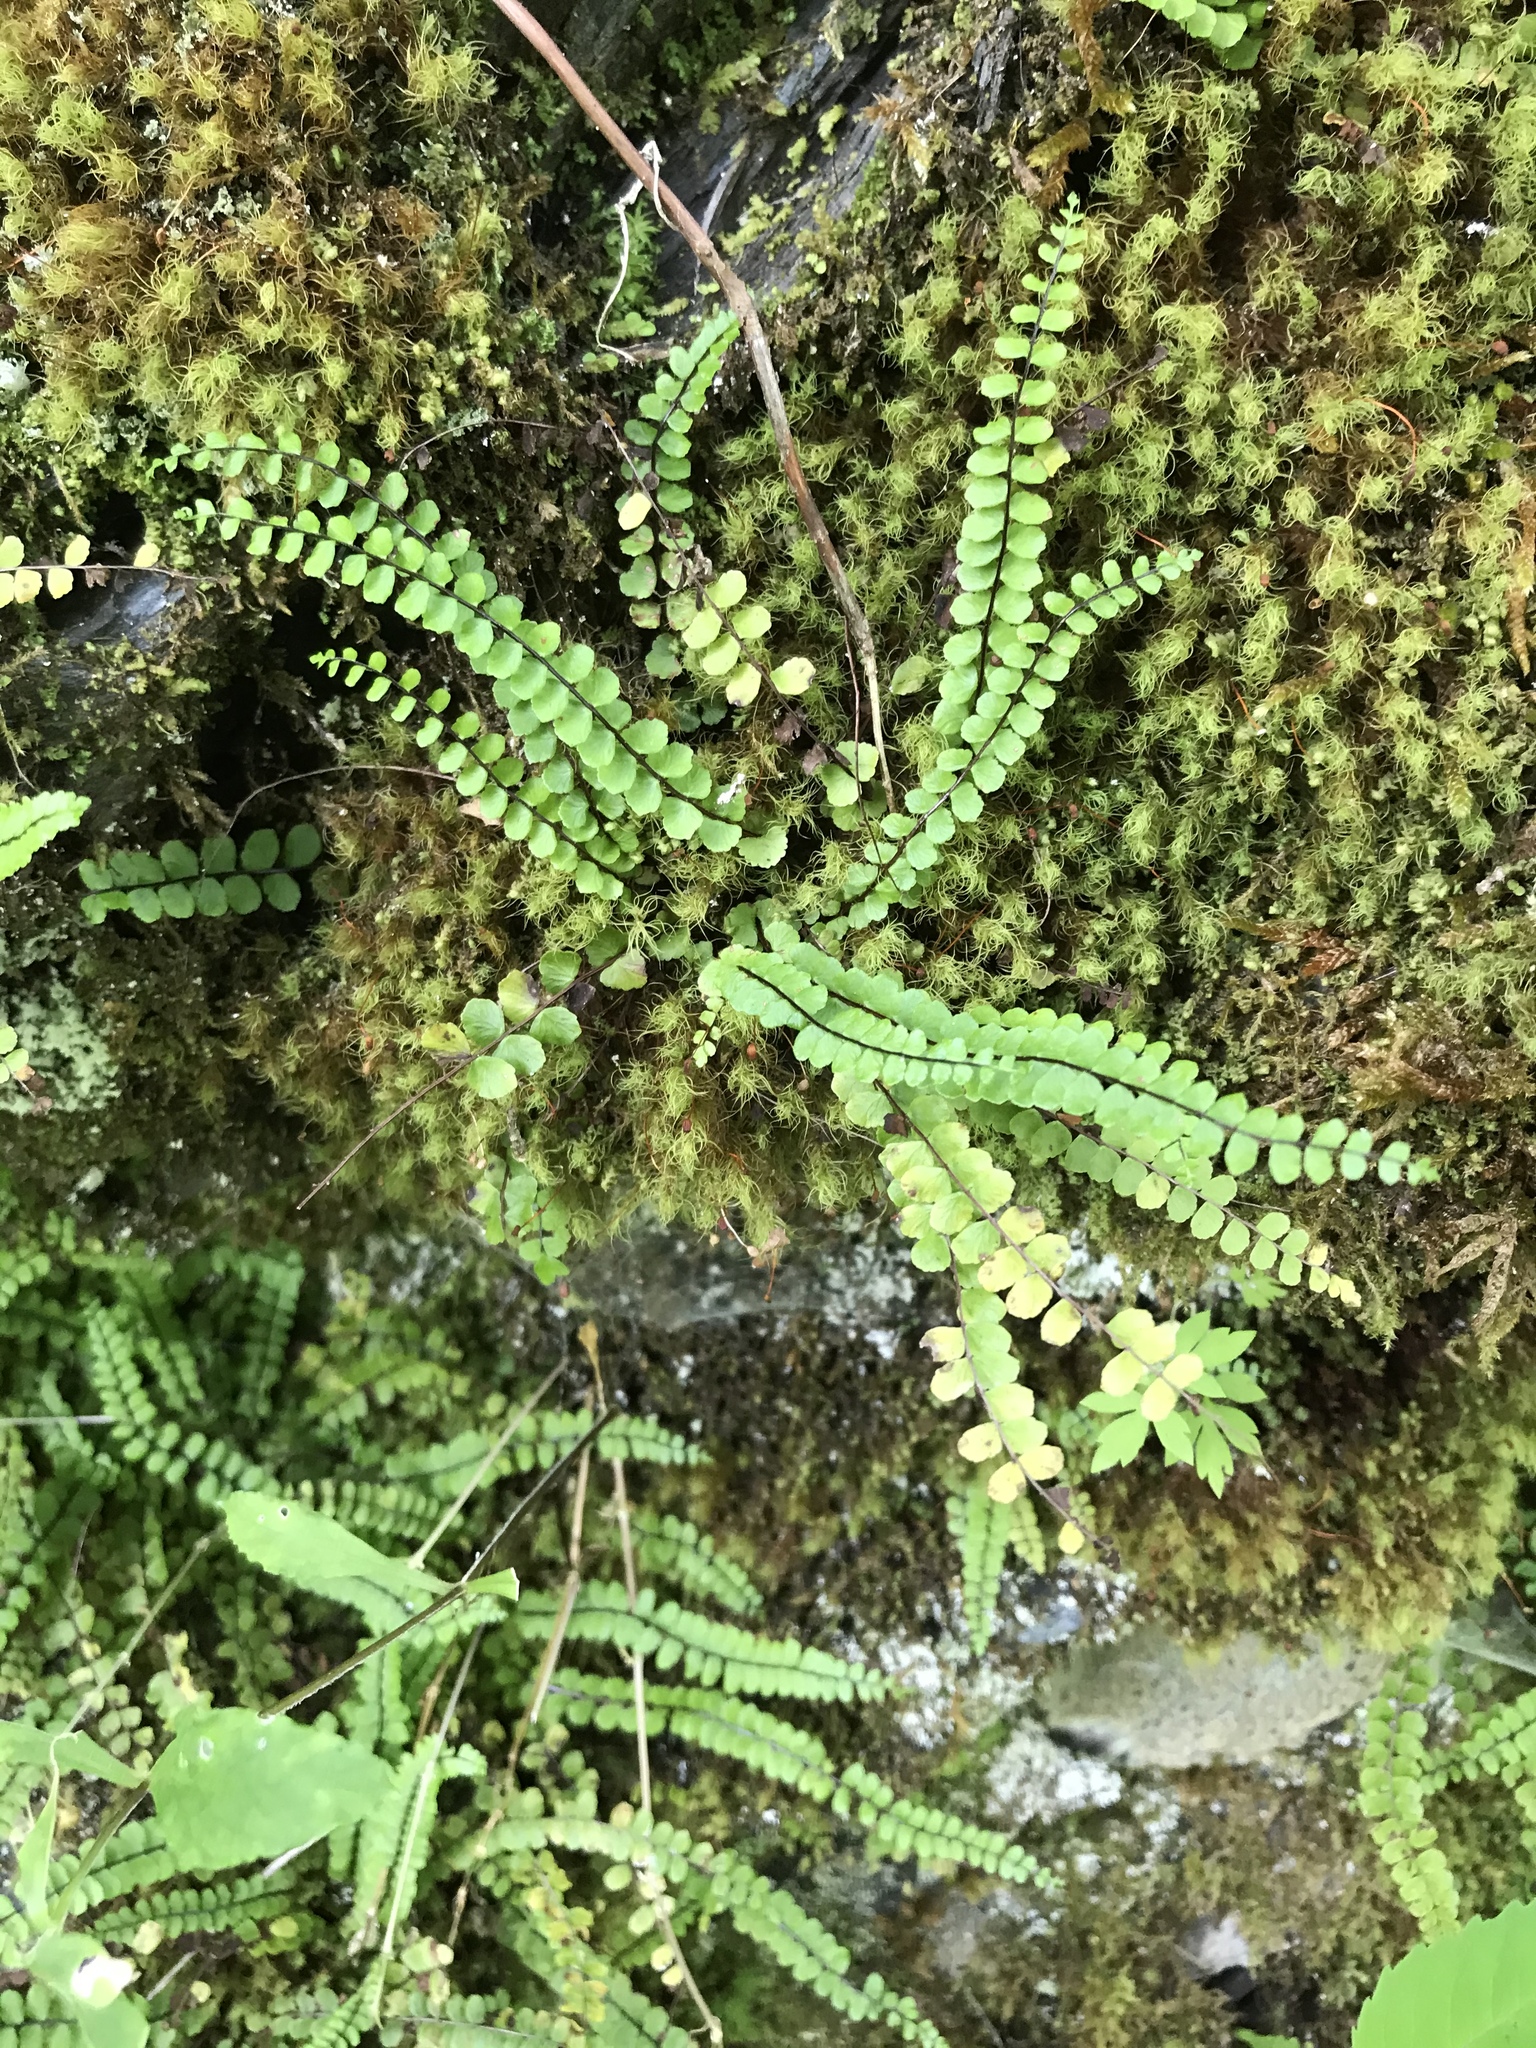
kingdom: Plantae
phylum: Tracheophyta
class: Polypodiopsida
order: Polypodiales
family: Aspleniaceae
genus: Asplenium
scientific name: Asplenium trichomanes
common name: Maidenhair spleenwort
